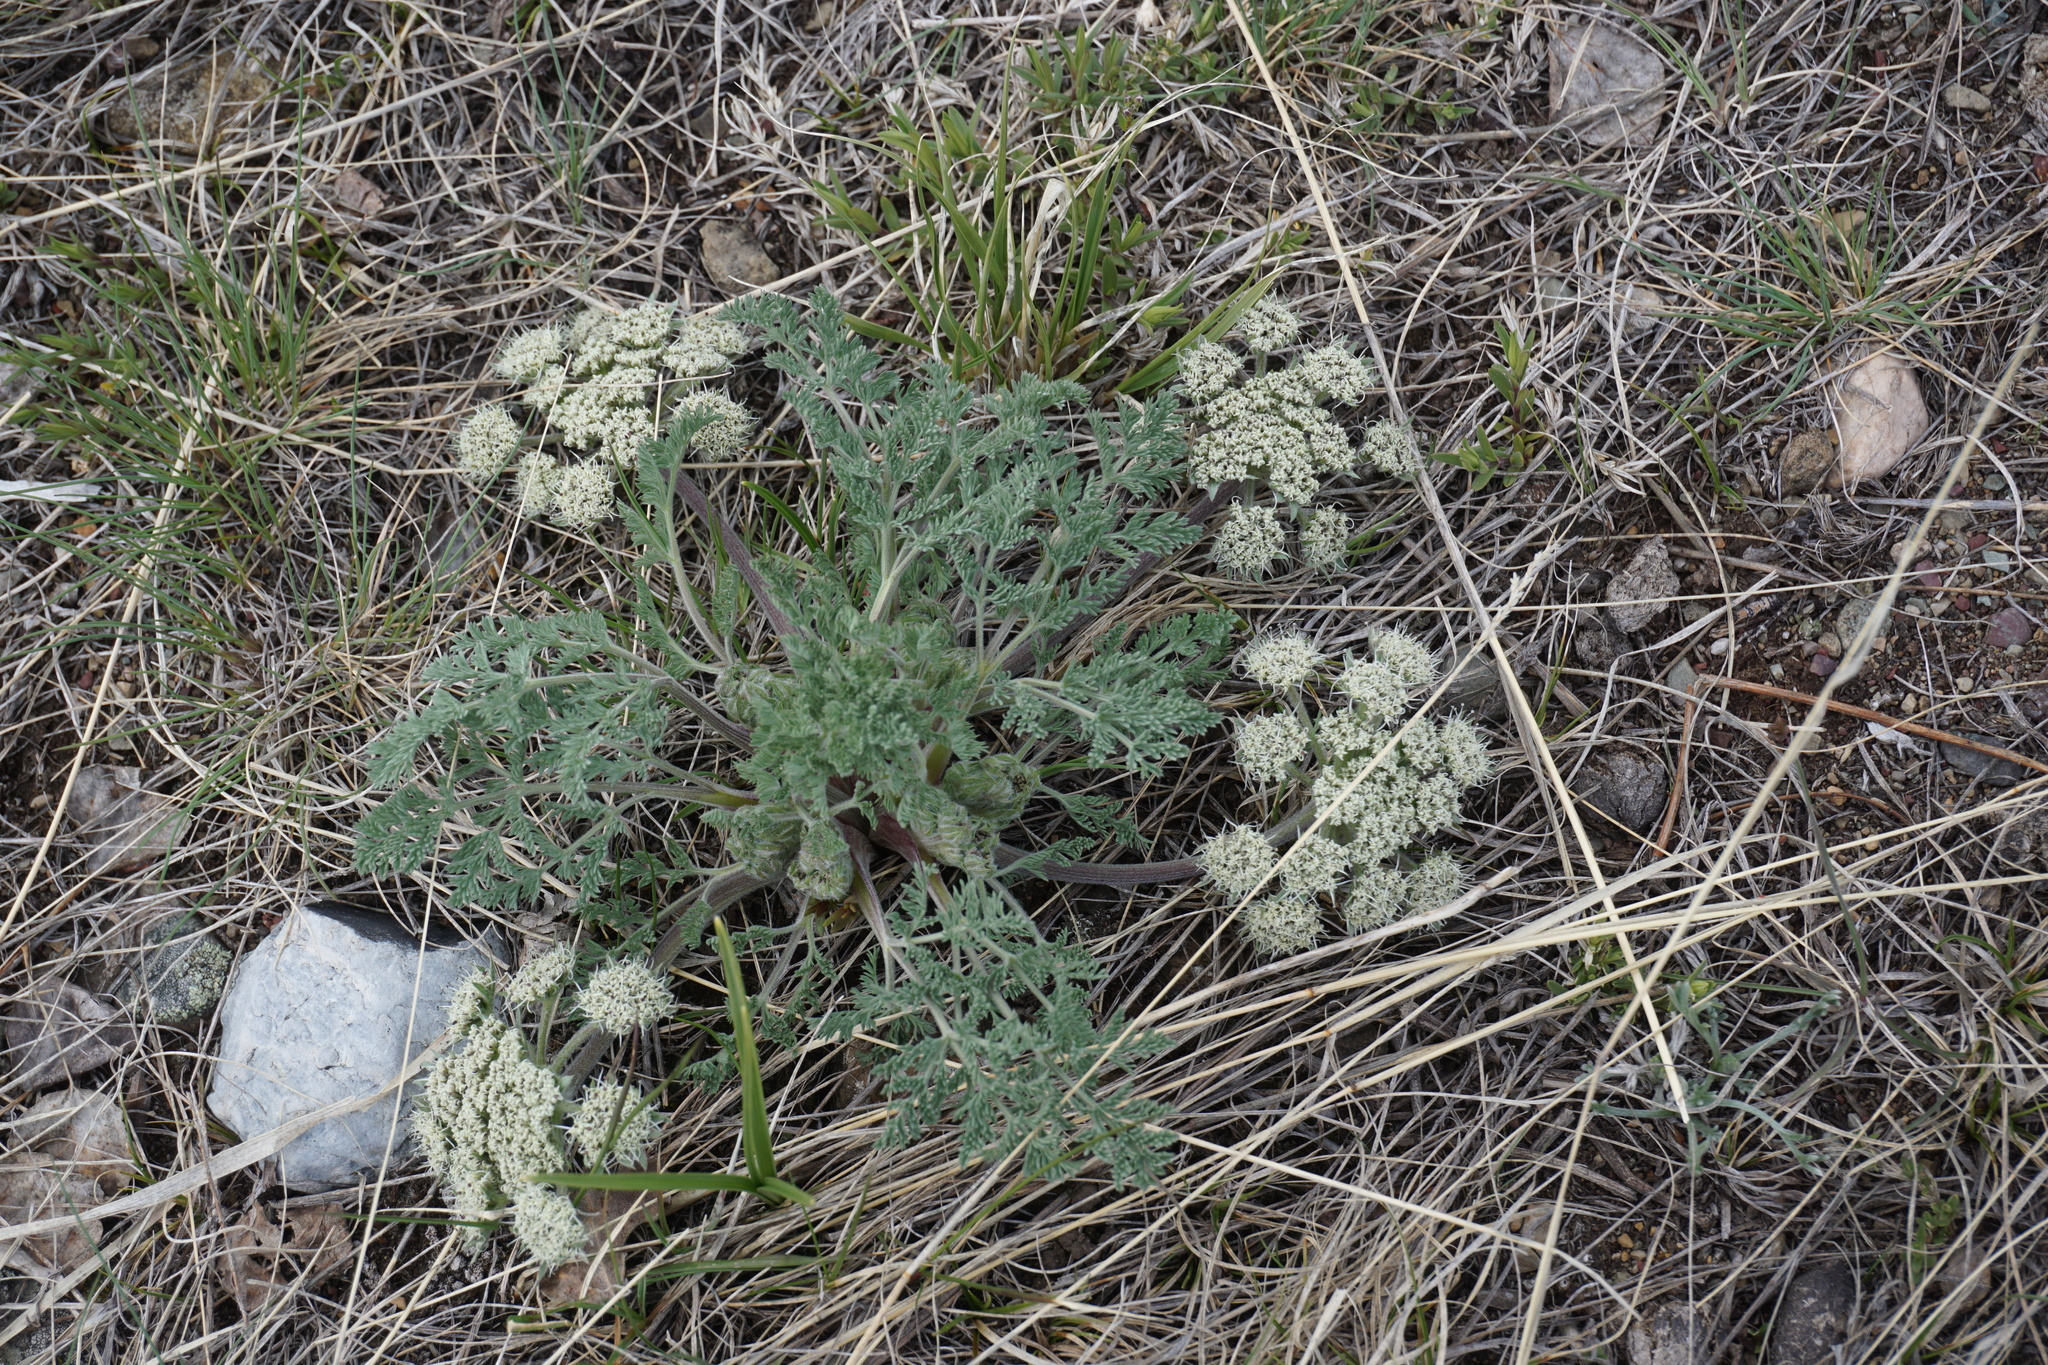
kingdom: Plantae
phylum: Tracheophyta
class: Magnoliopsida
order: Apiales
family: Apiaceae
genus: Lomatium
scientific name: Lomatium macrocarpum
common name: Big-seed biscuitroot
